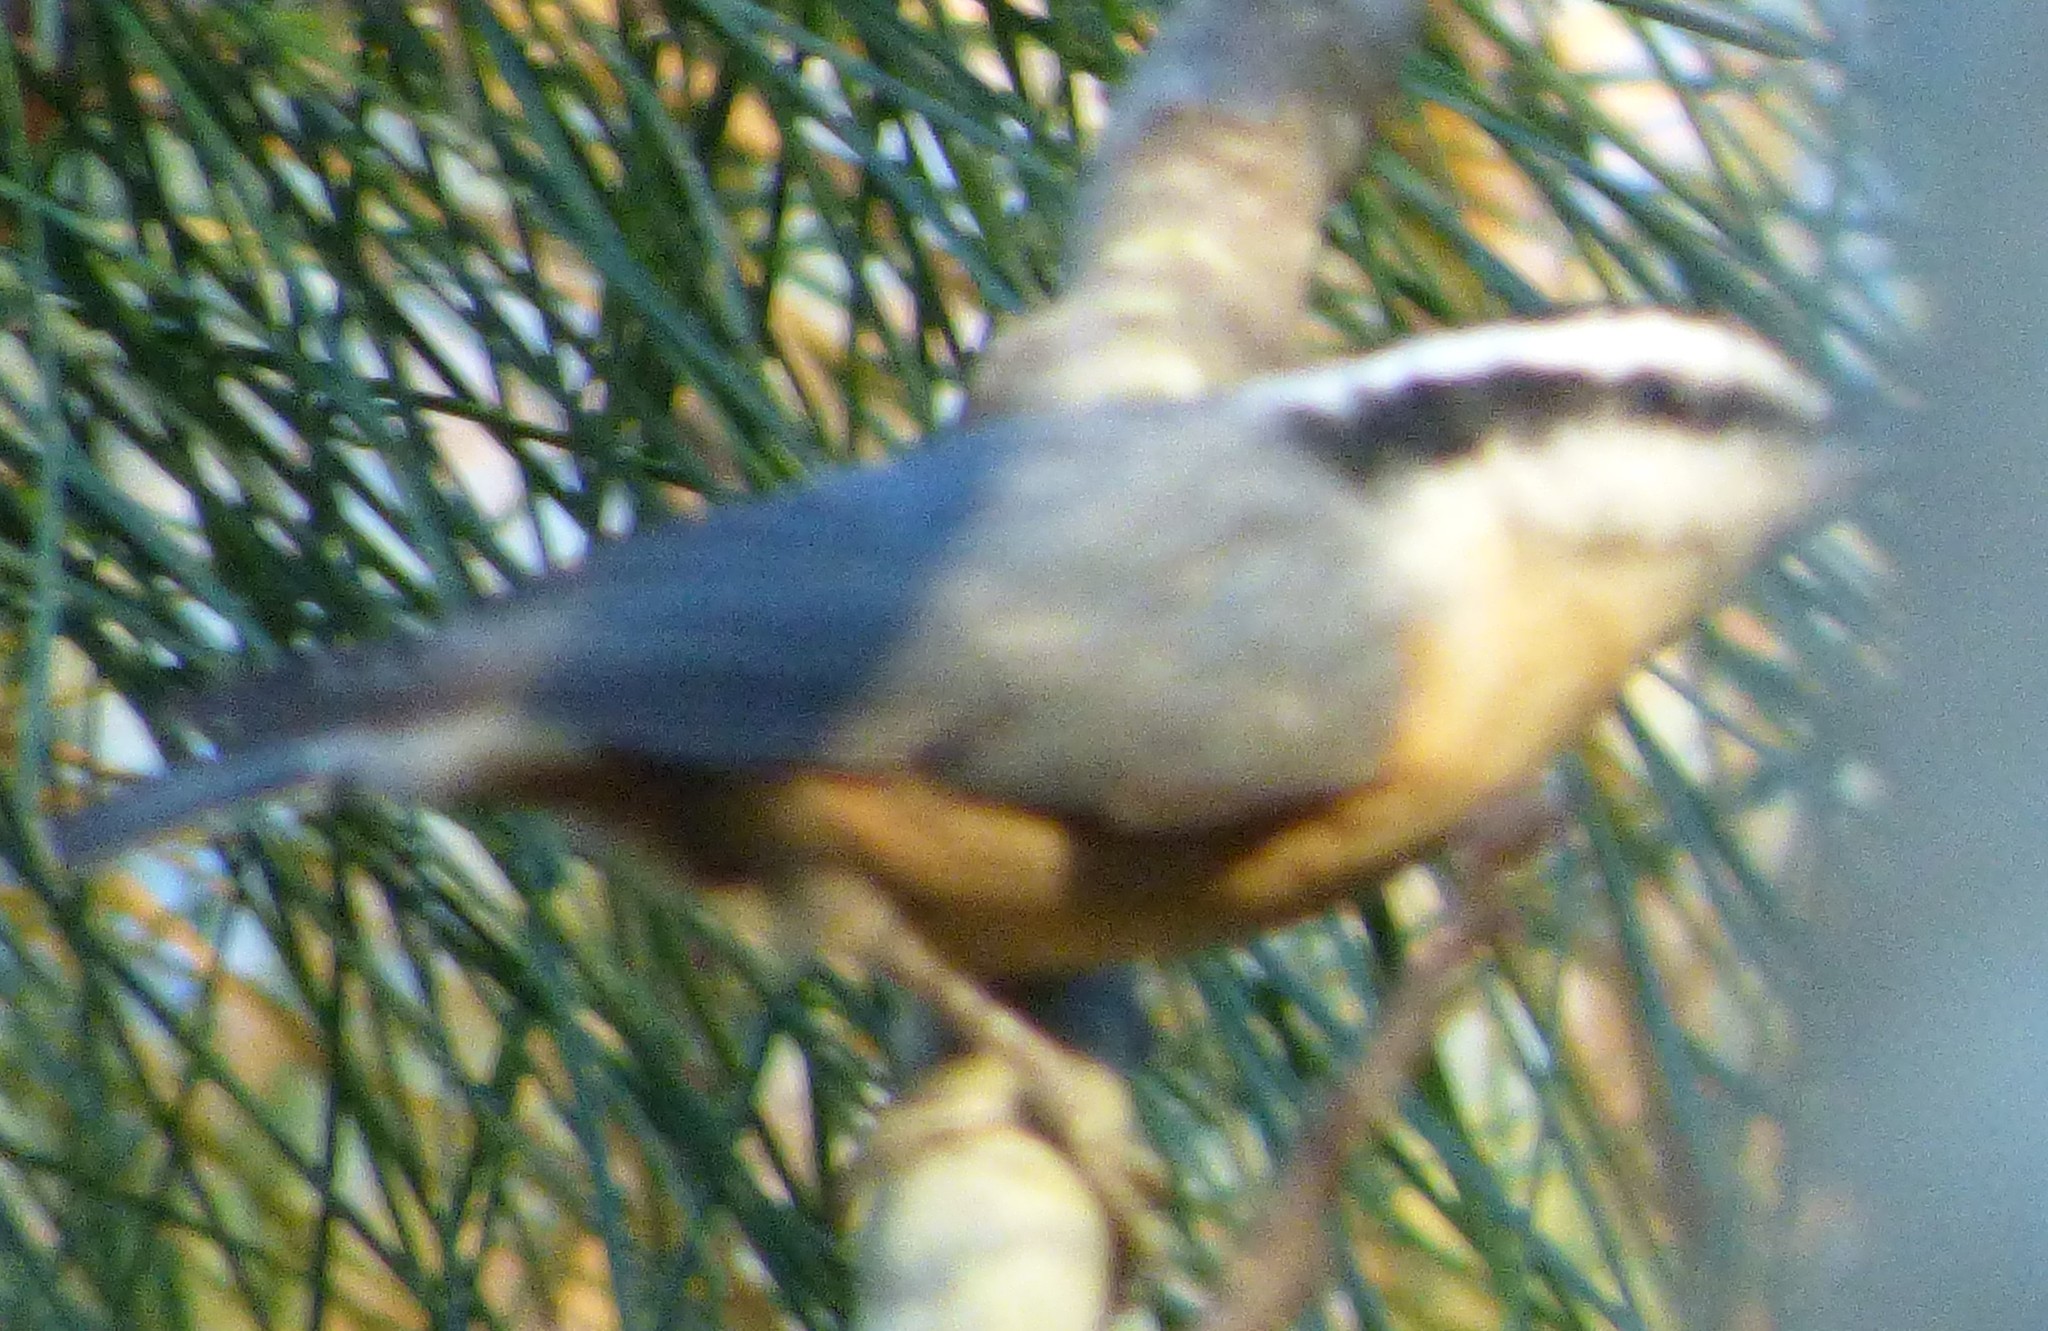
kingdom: Animalia
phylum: Chordata
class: Aves
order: Passeriformes
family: Sittidae
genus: Sitta
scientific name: Sitta canadensis
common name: Red-breasted nuthatch
